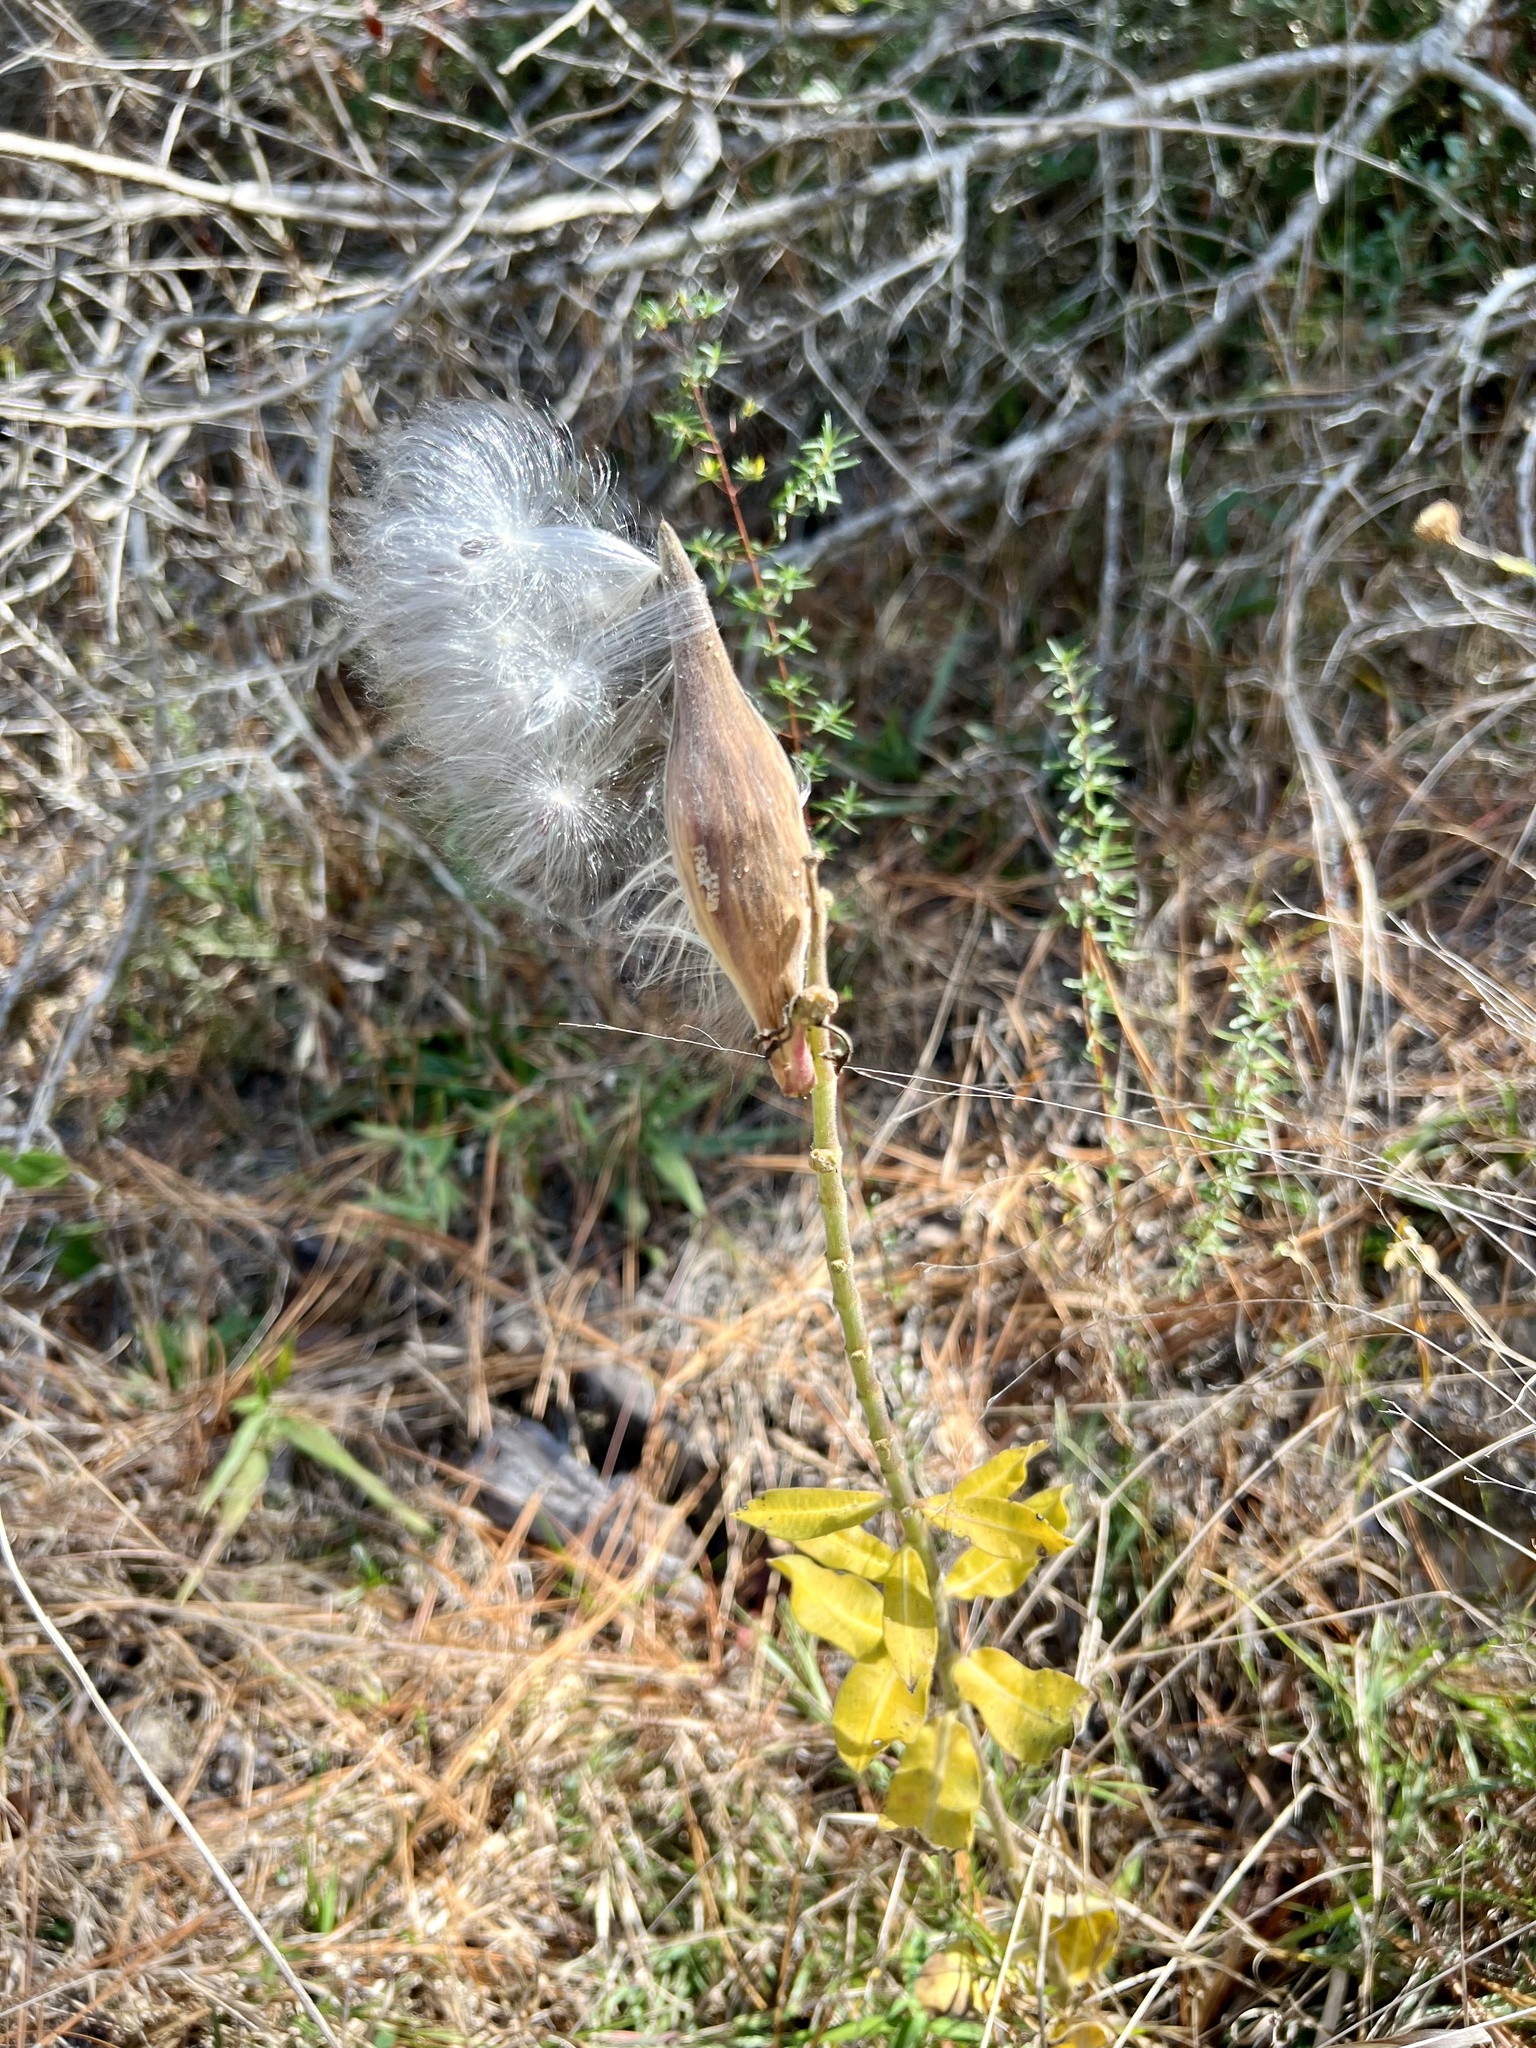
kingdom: Plantae
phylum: Tracheophyta
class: Magnoliopsida
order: Gentianales
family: Apocynaceae
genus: Asclepias
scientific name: Asclepias obovata
